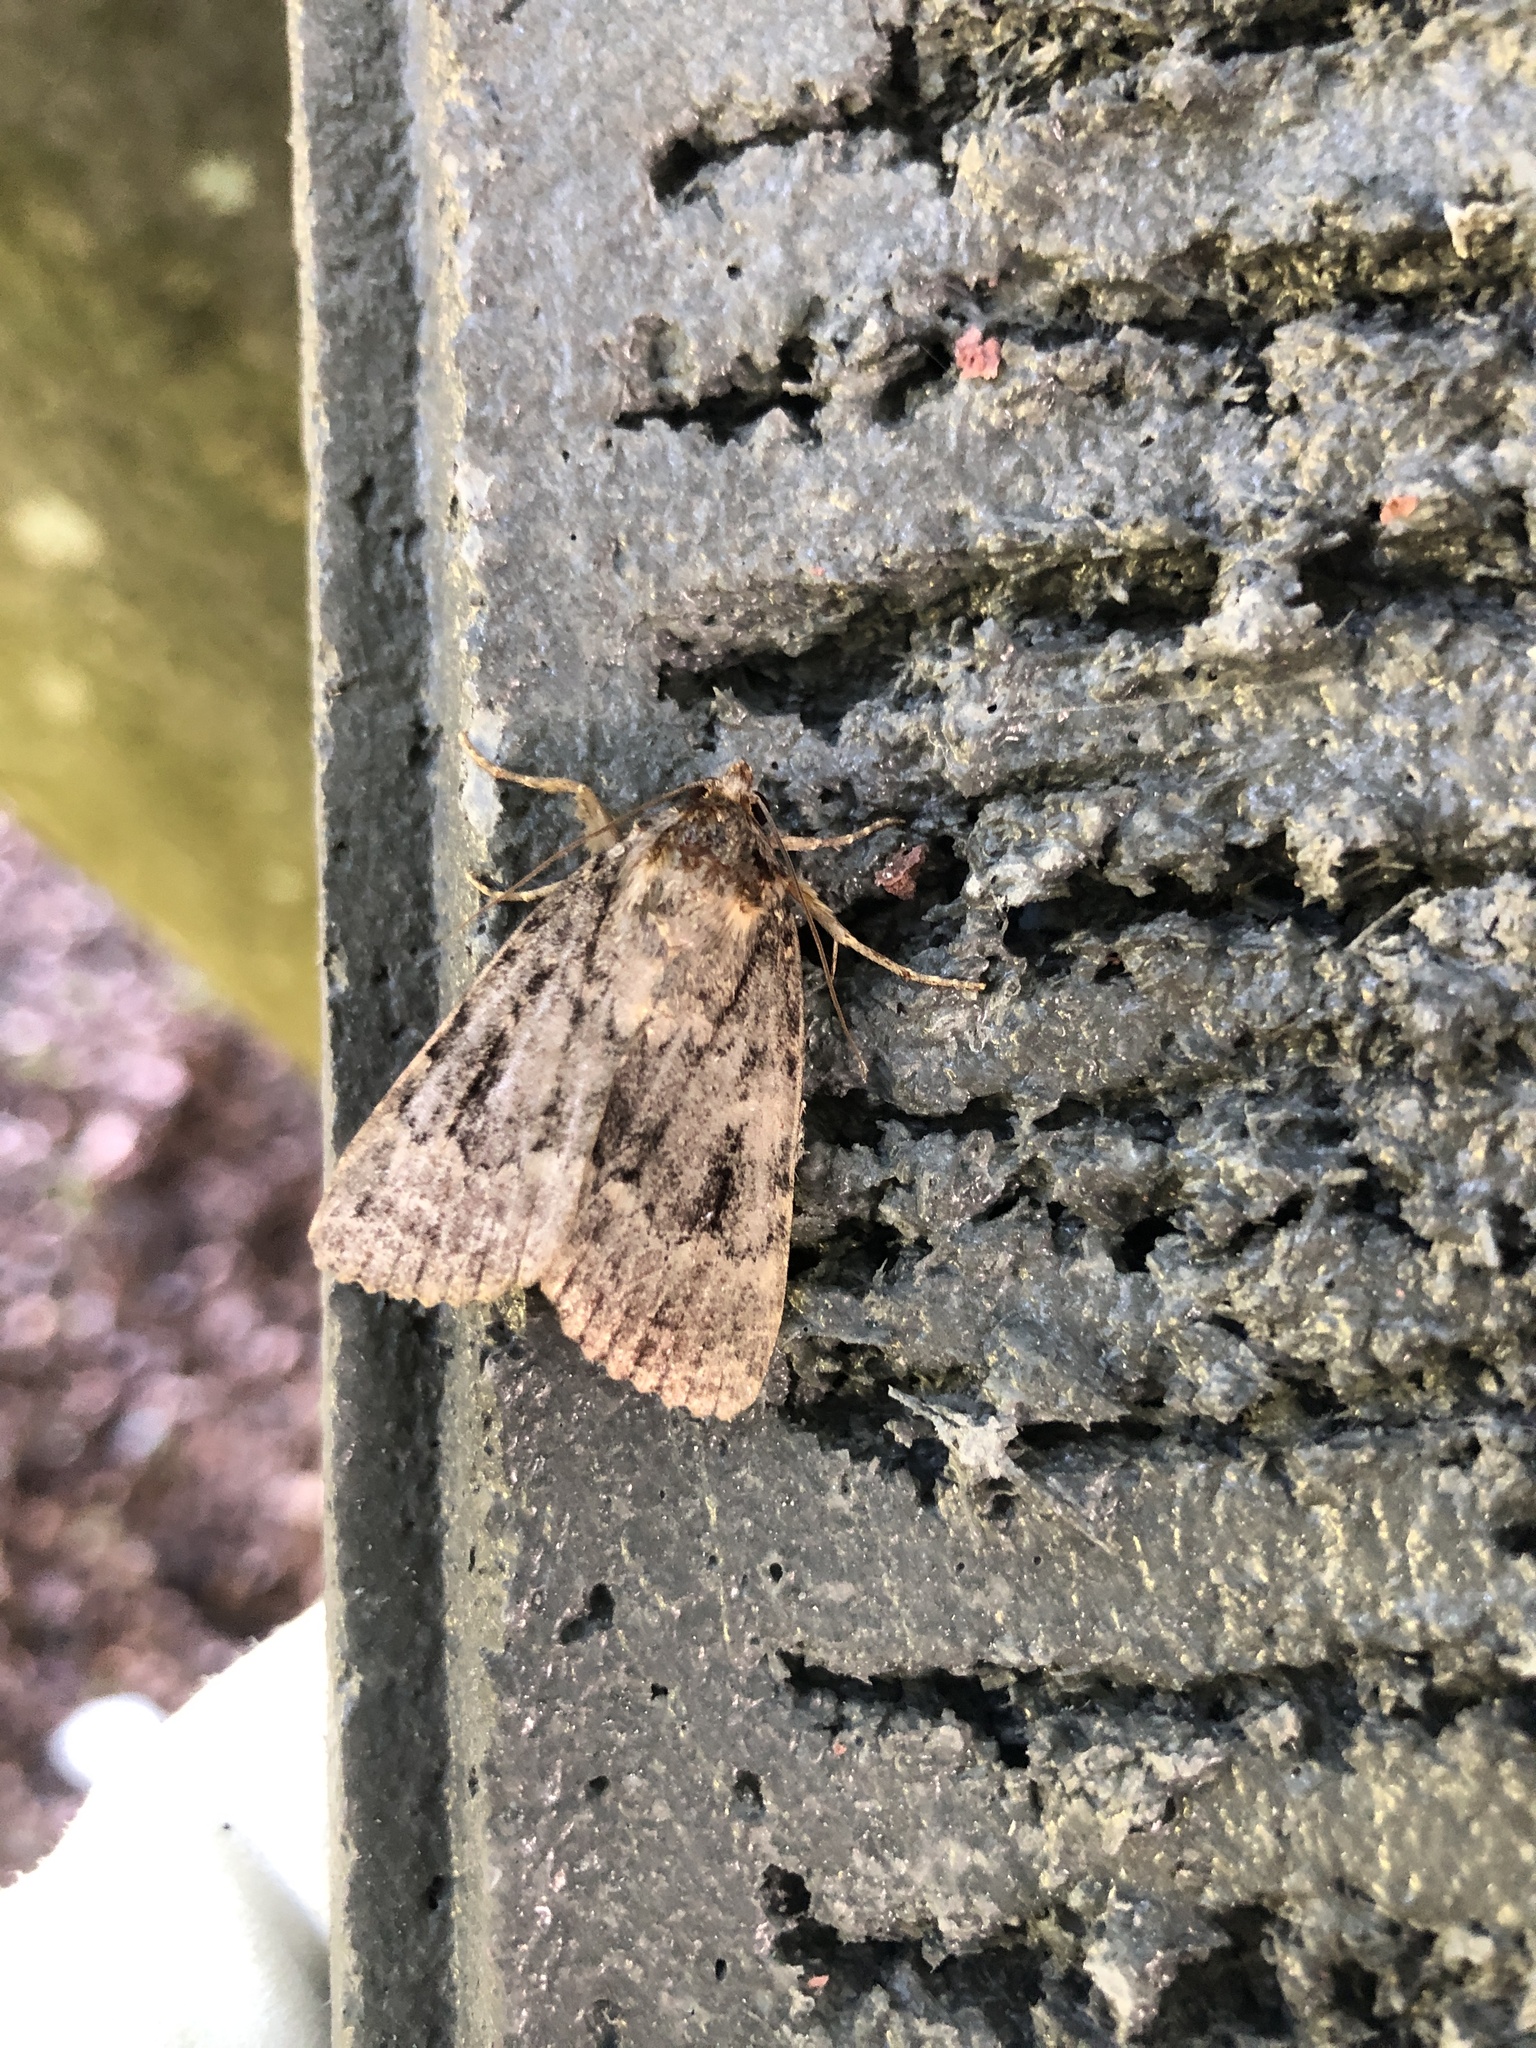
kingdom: Animalia
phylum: Arthropoda
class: Insecta
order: Lepidoptera
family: Noctuidae
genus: Amphipyra
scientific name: Amphipyra
